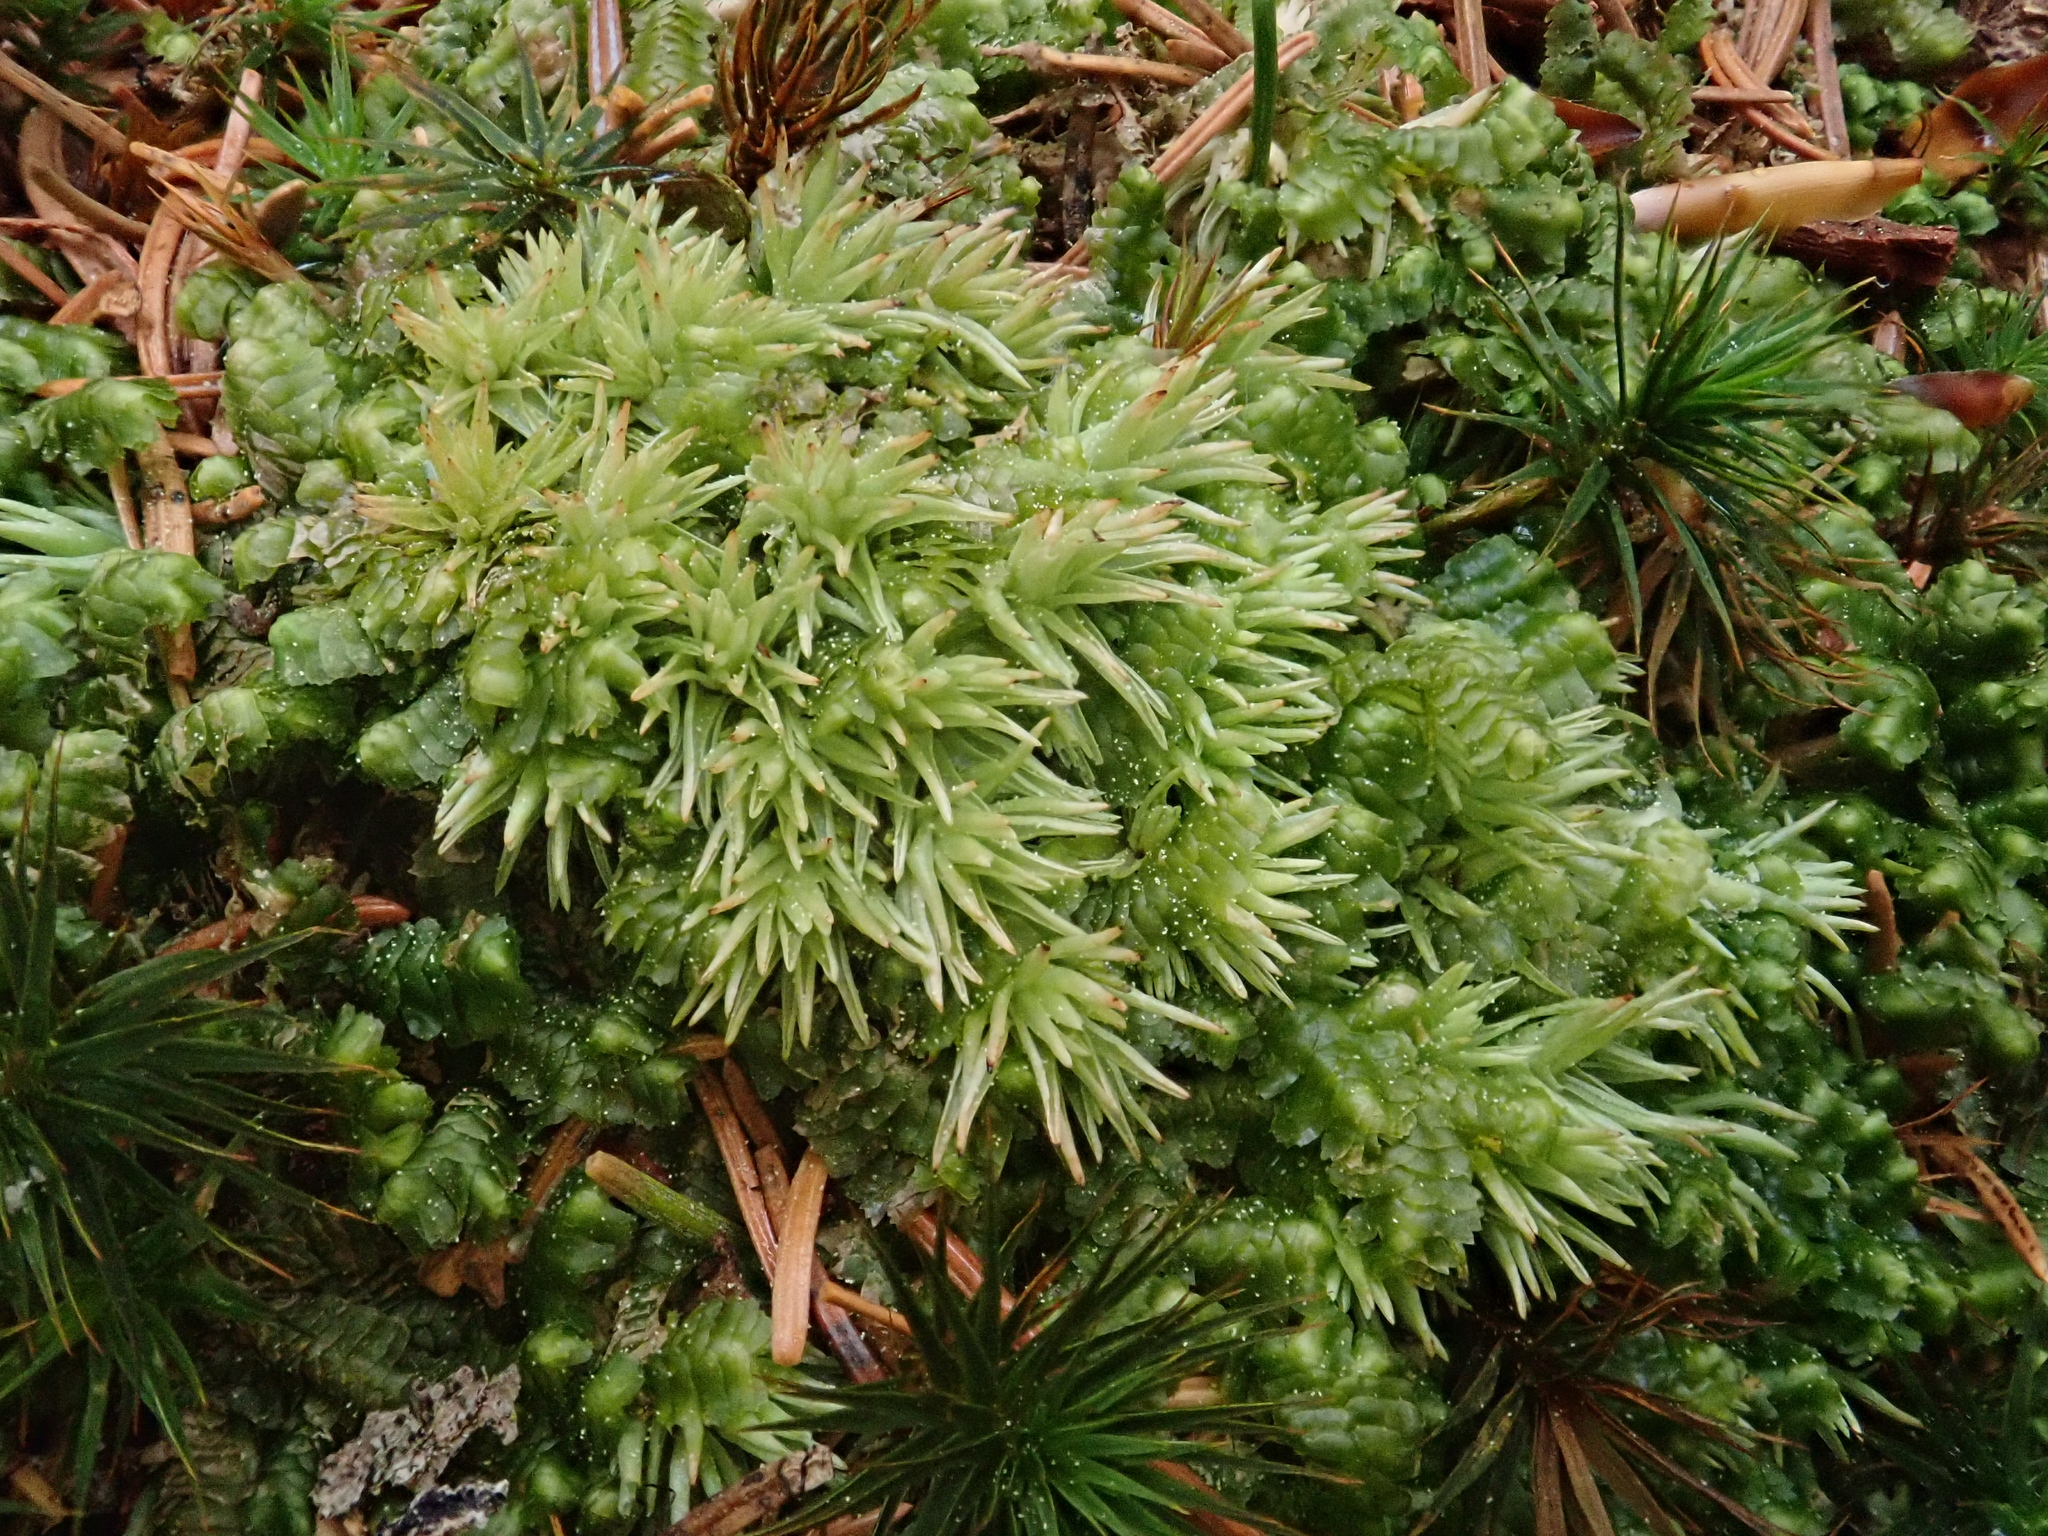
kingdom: Plantae
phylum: Bryophyta
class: Bryopsida
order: Dicranales
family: Leucobryaceae
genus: Leucobryum
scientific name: Leucobryum glaucum
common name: Large white-moss
